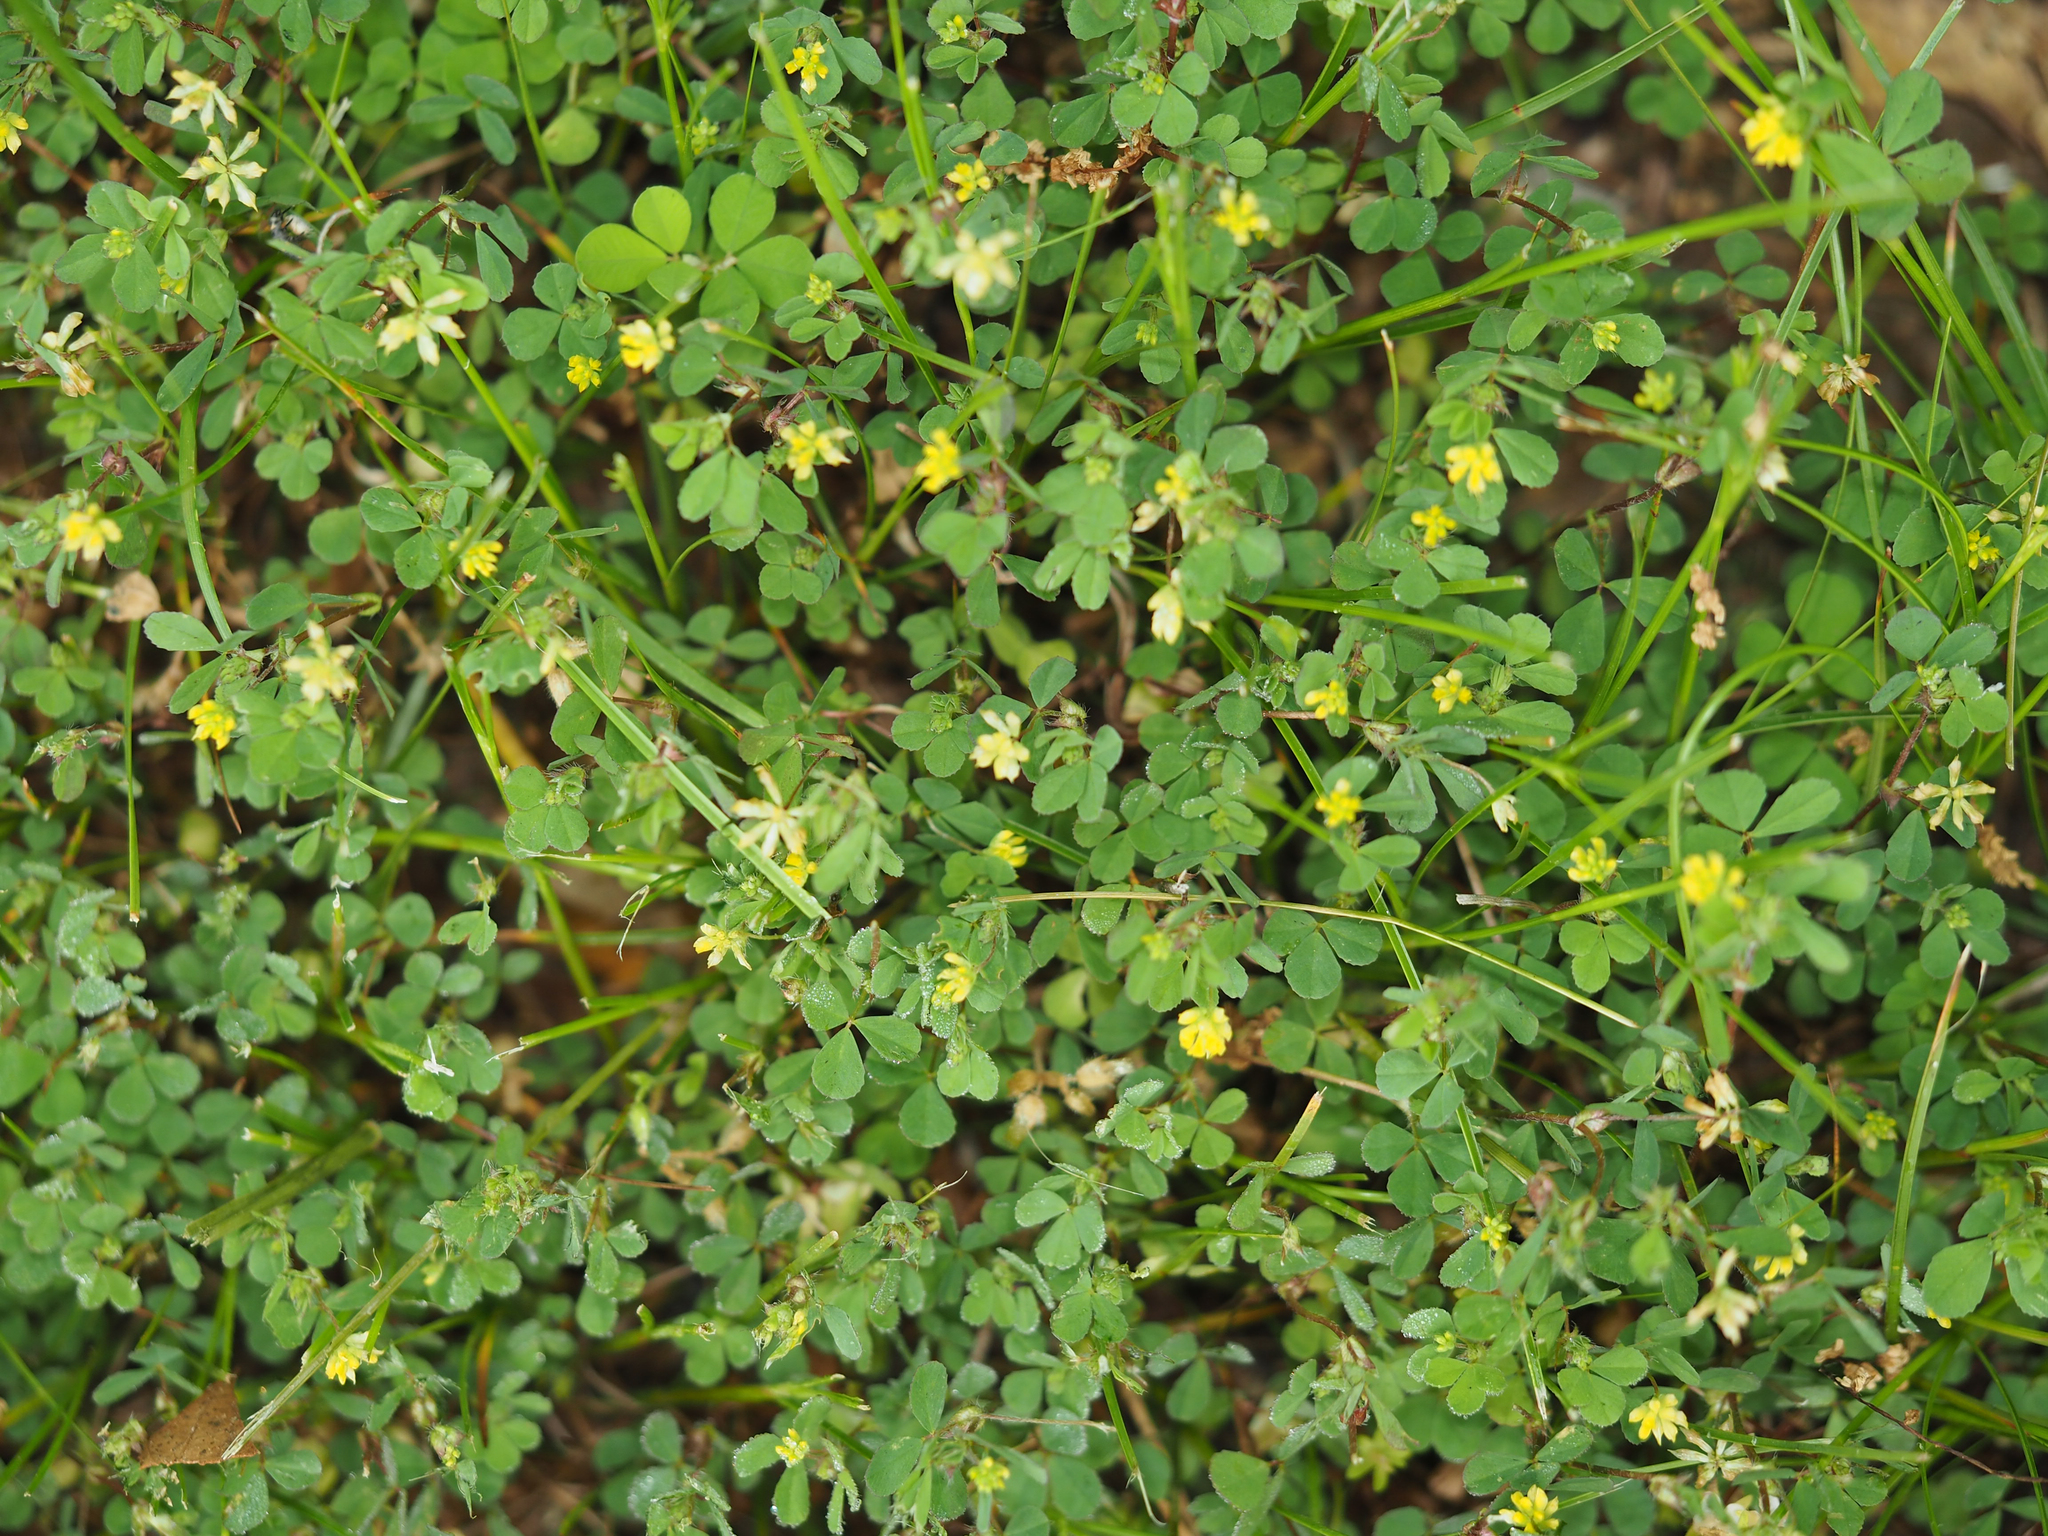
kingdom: Plantae
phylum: Tracheophyta
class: Magnoliopsida
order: Fabales
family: Fabaceae
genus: Trifolium
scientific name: Trifolium dubium
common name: Suckling clover
